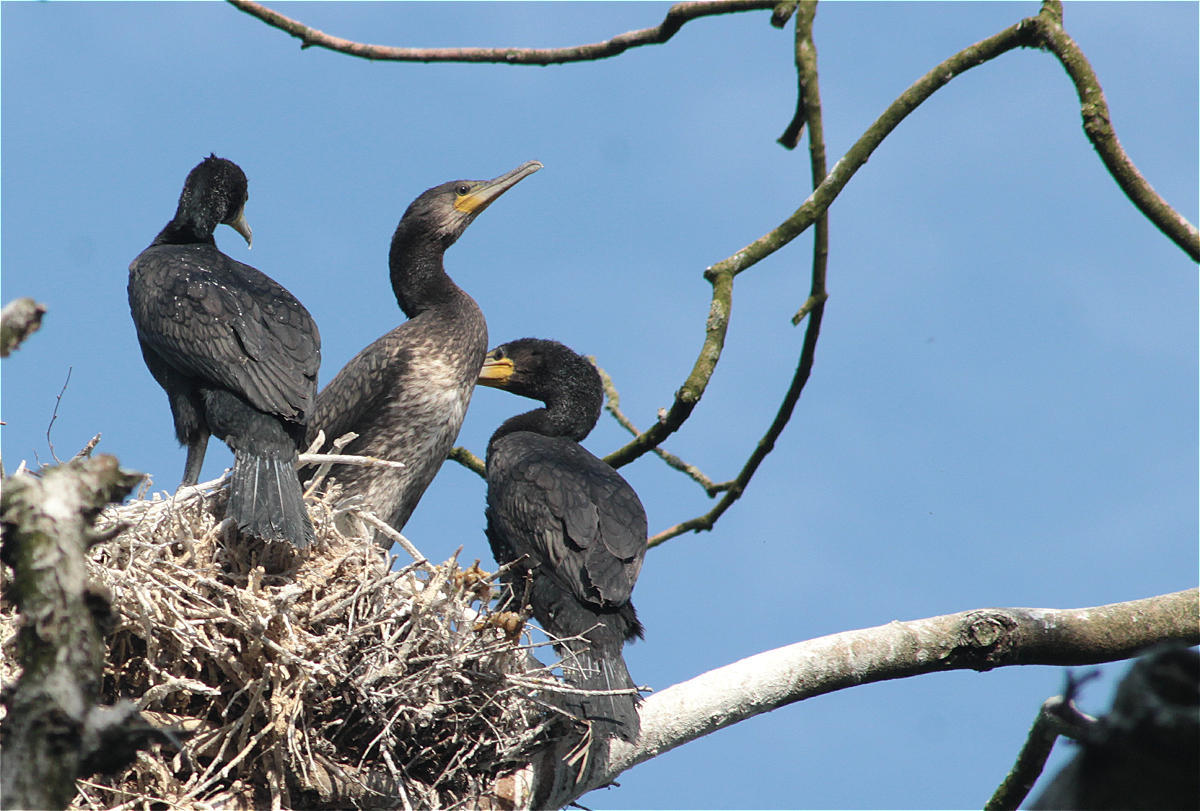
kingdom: Animalia
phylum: Chordata
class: Aves
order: Suliformes
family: Phalacrocoracidae
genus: Phalacrocorax
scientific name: Phalacrocorax carbo
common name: Great cormorant
